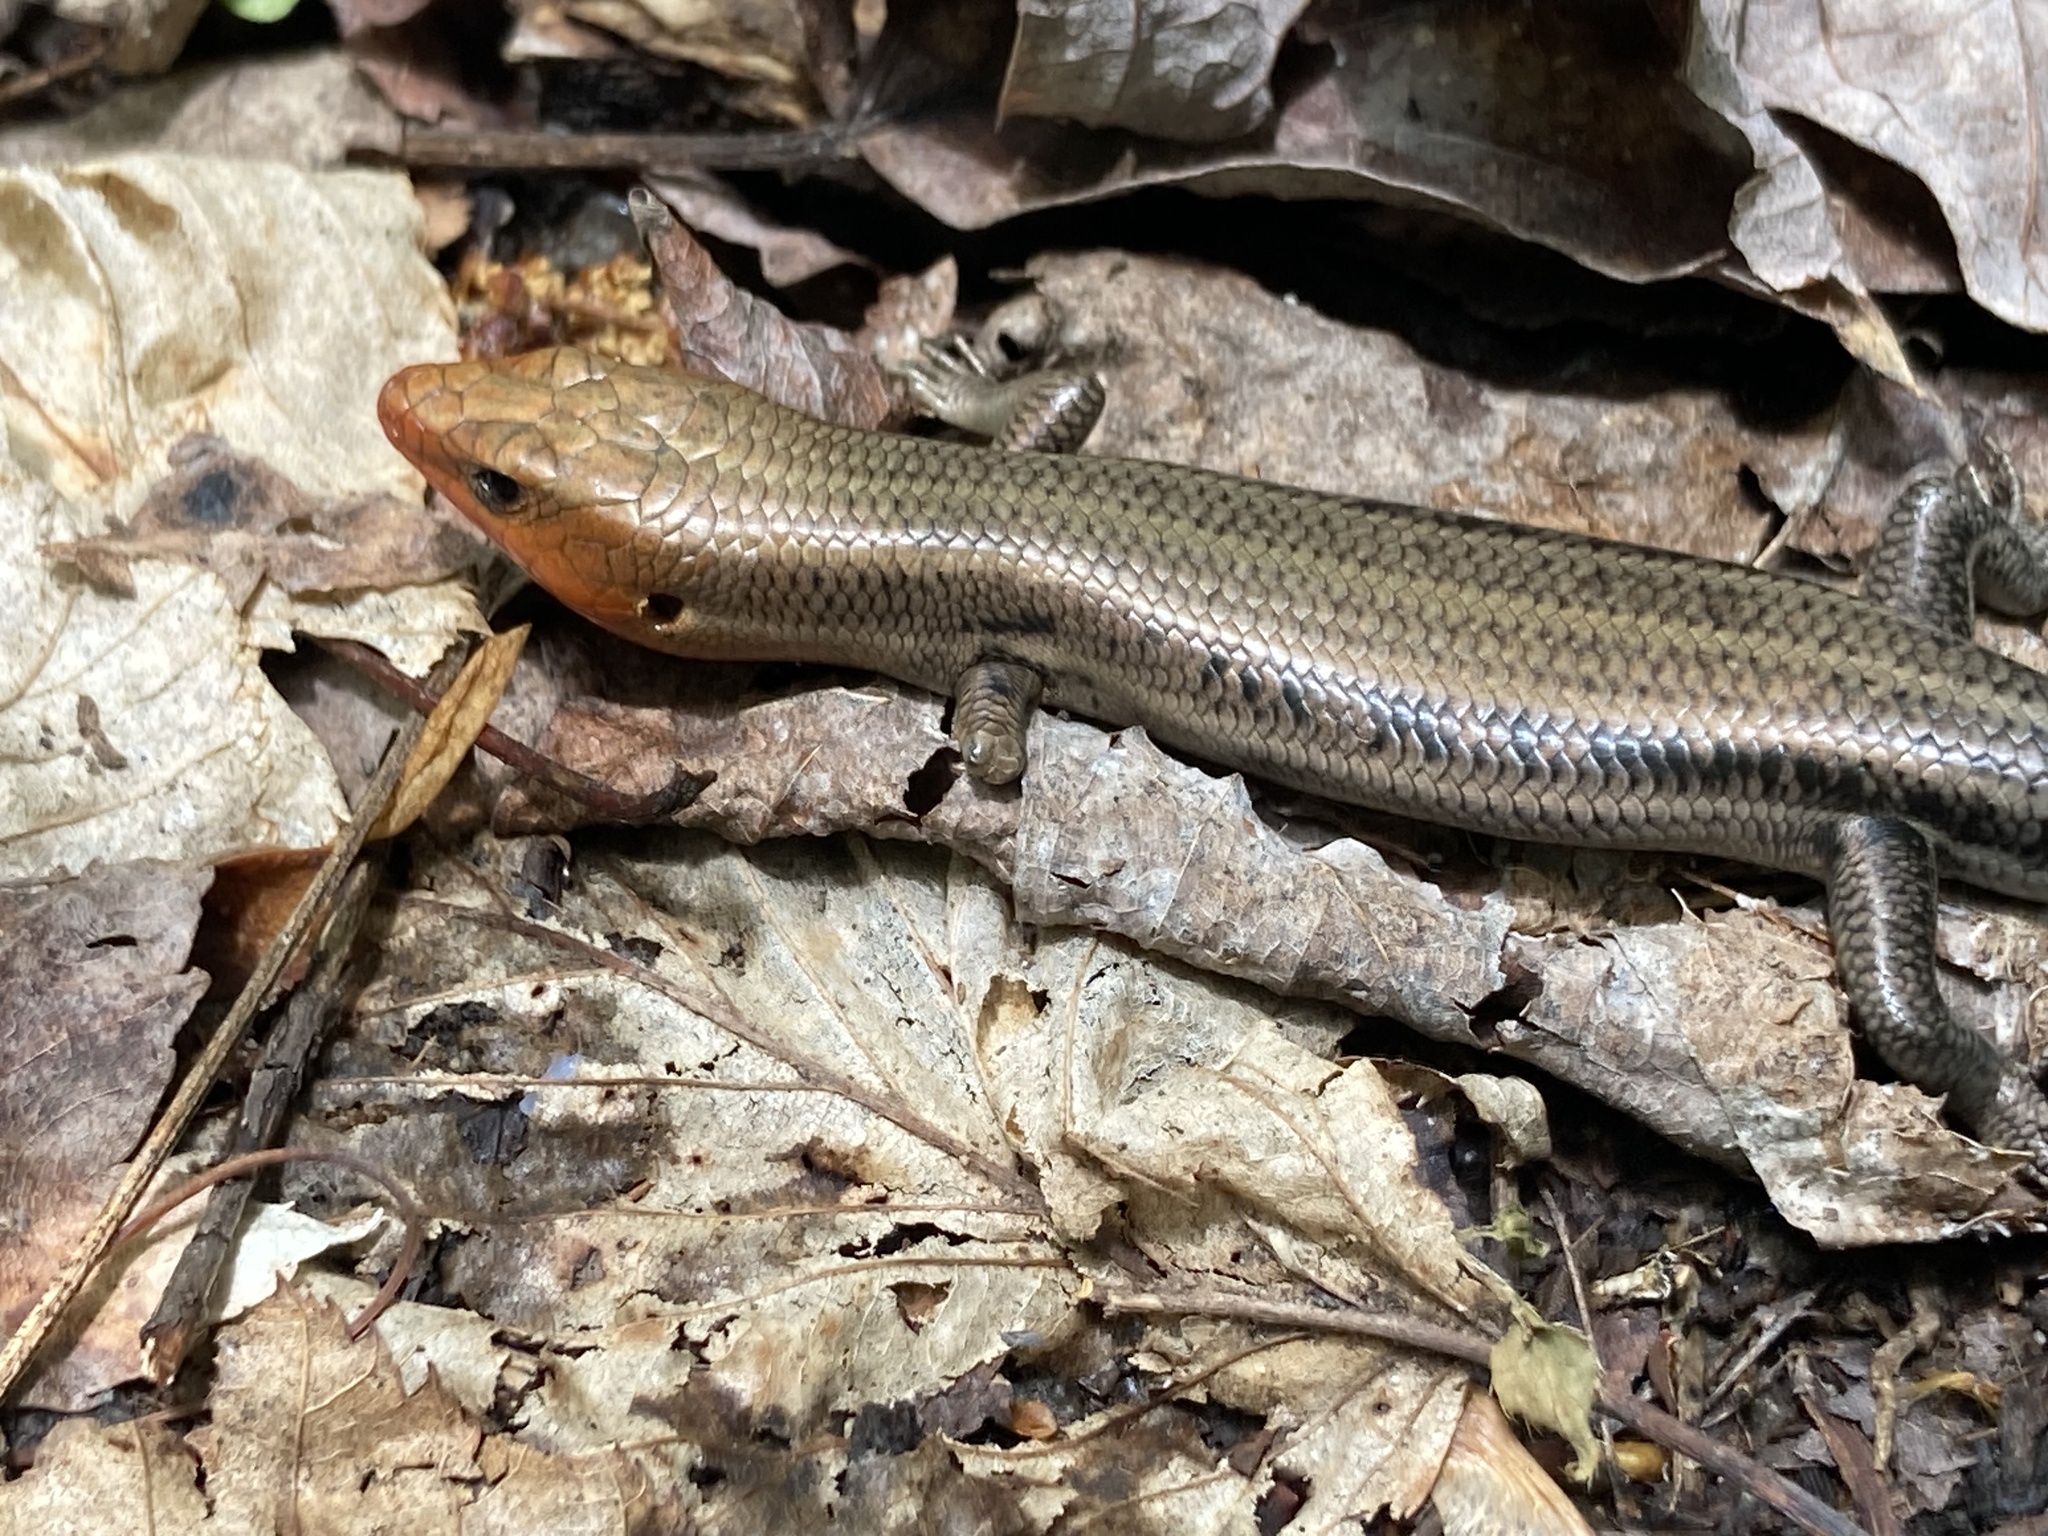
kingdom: Animalia
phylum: Chordata
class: Squamata
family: Scincidae
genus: Plestiodon
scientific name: Plestiodon fasciatus
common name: Five-lined skink
